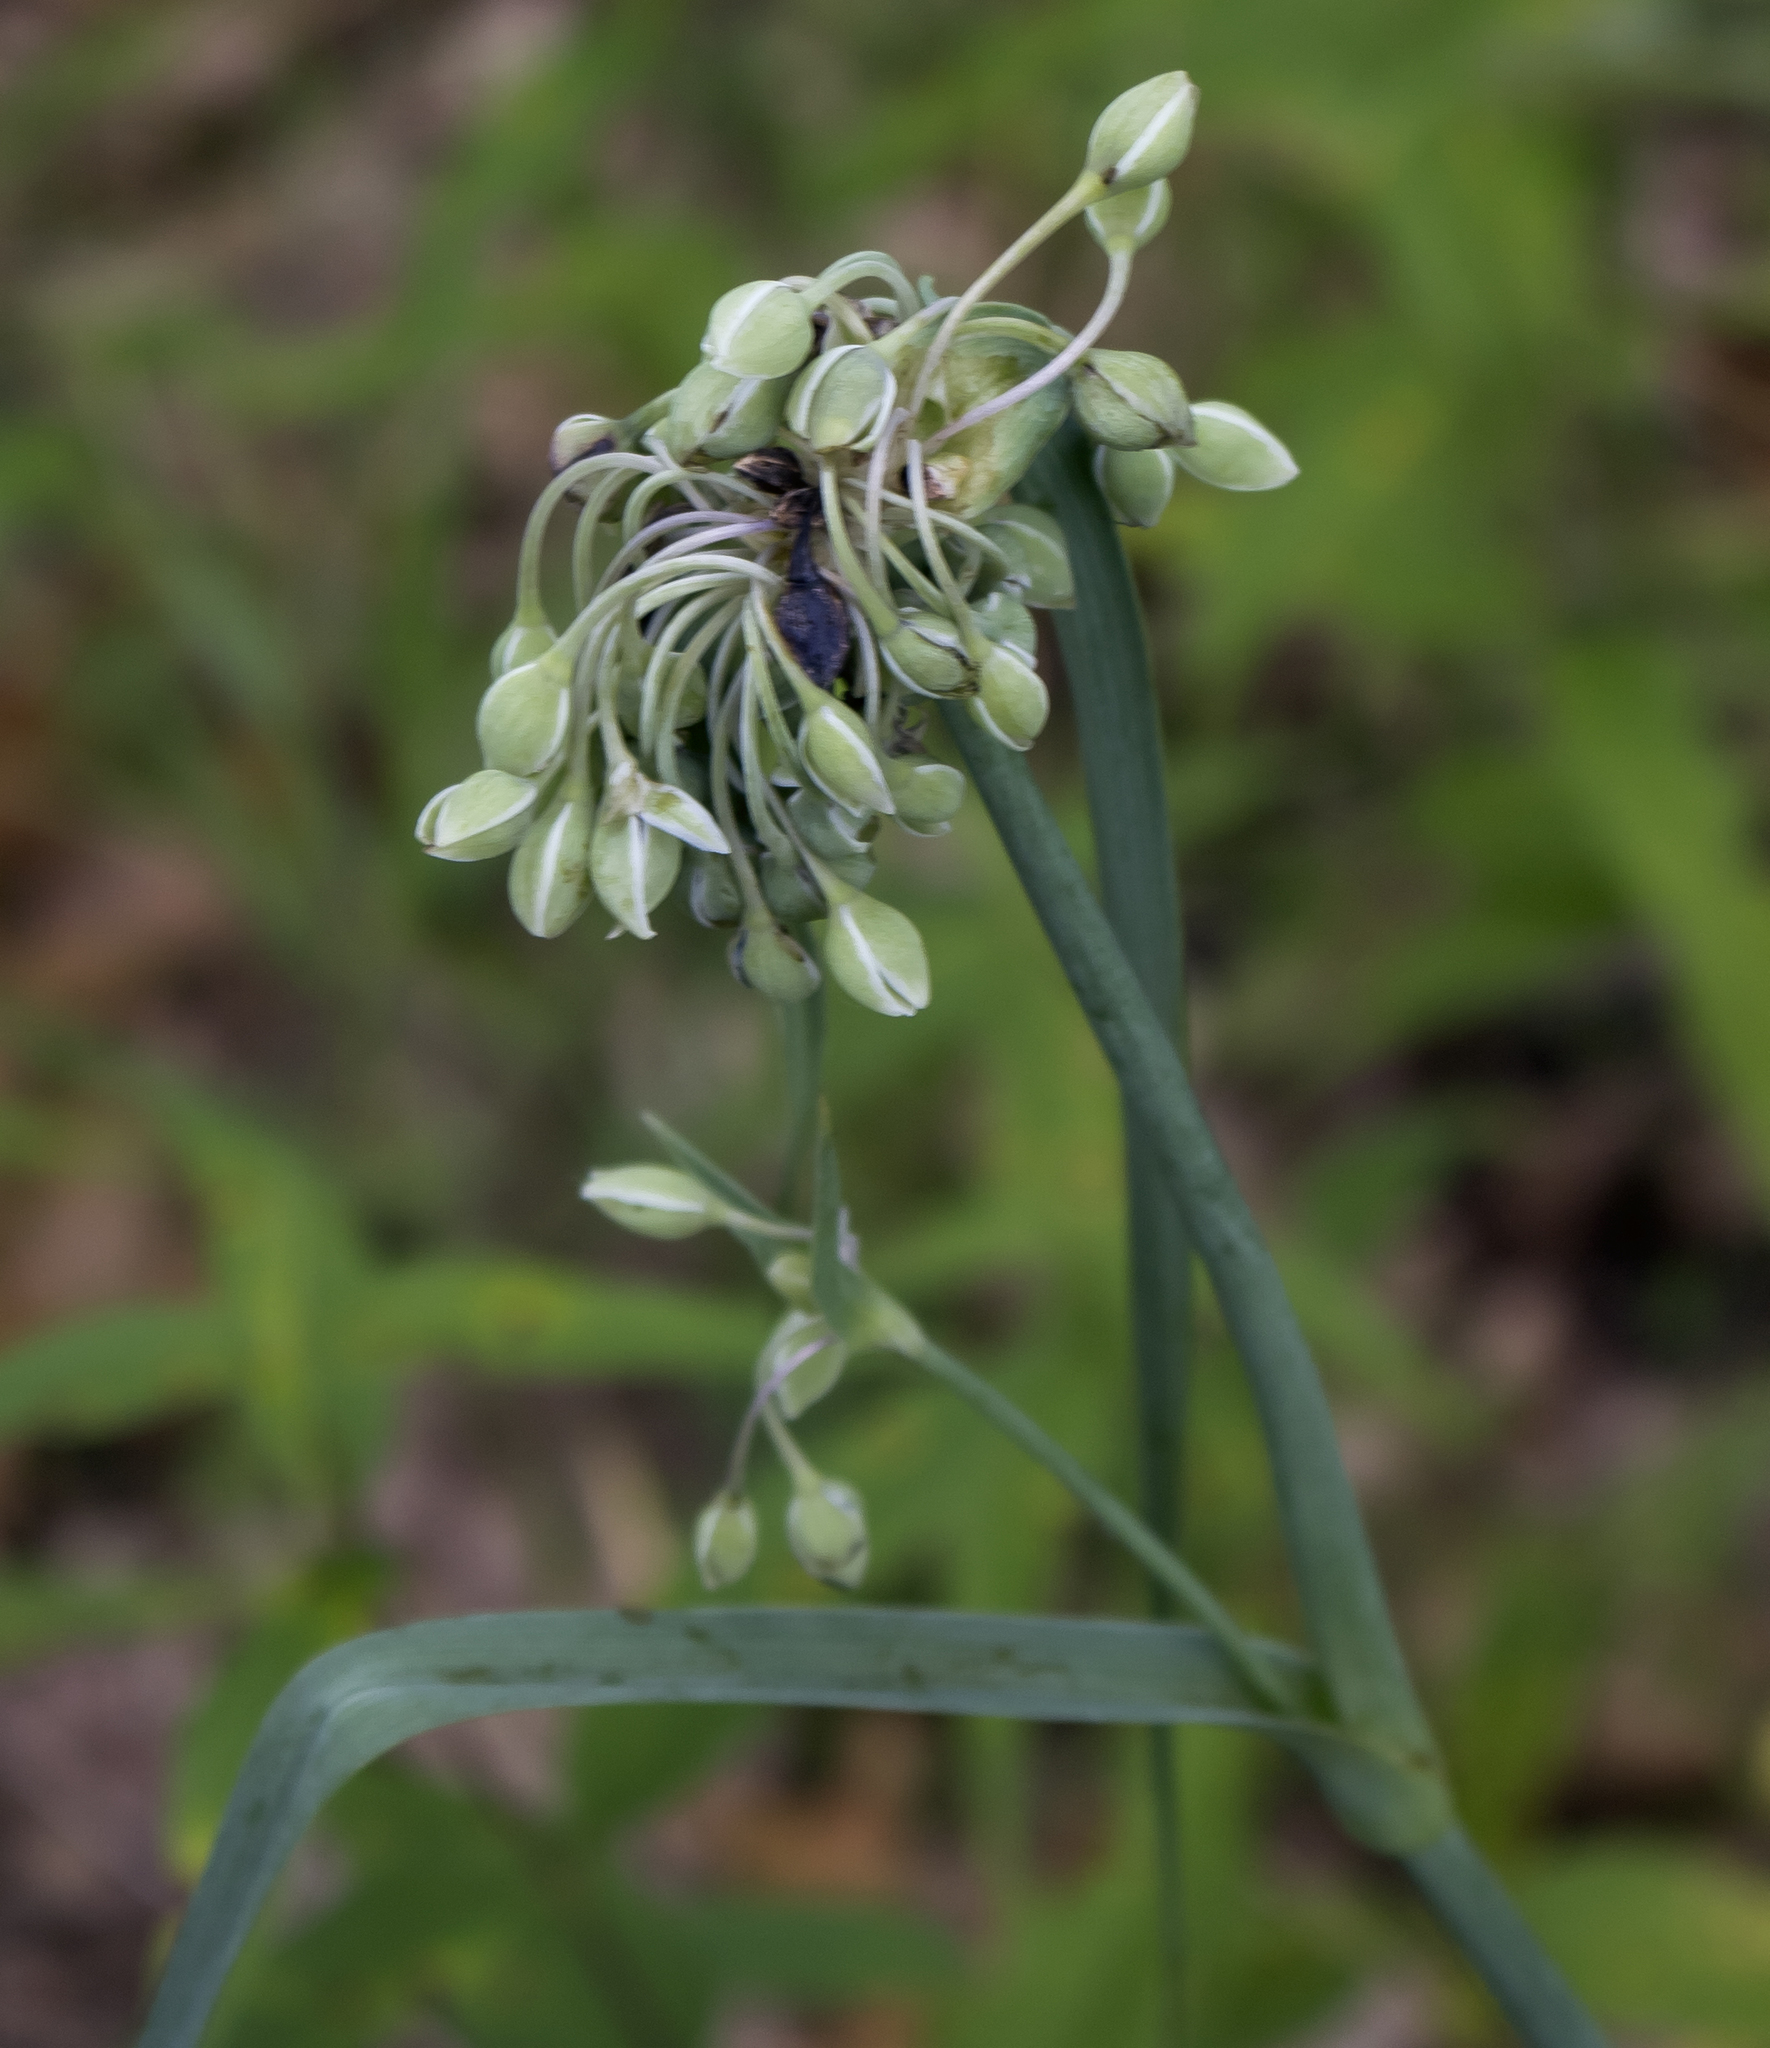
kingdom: Plantae
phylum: Tracheophyta
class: Liliopsida
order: Commelinales
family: Commelinaceae
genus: Tradescantia
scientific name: Tradescantia ohiensis
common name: Ohio spiderwort
